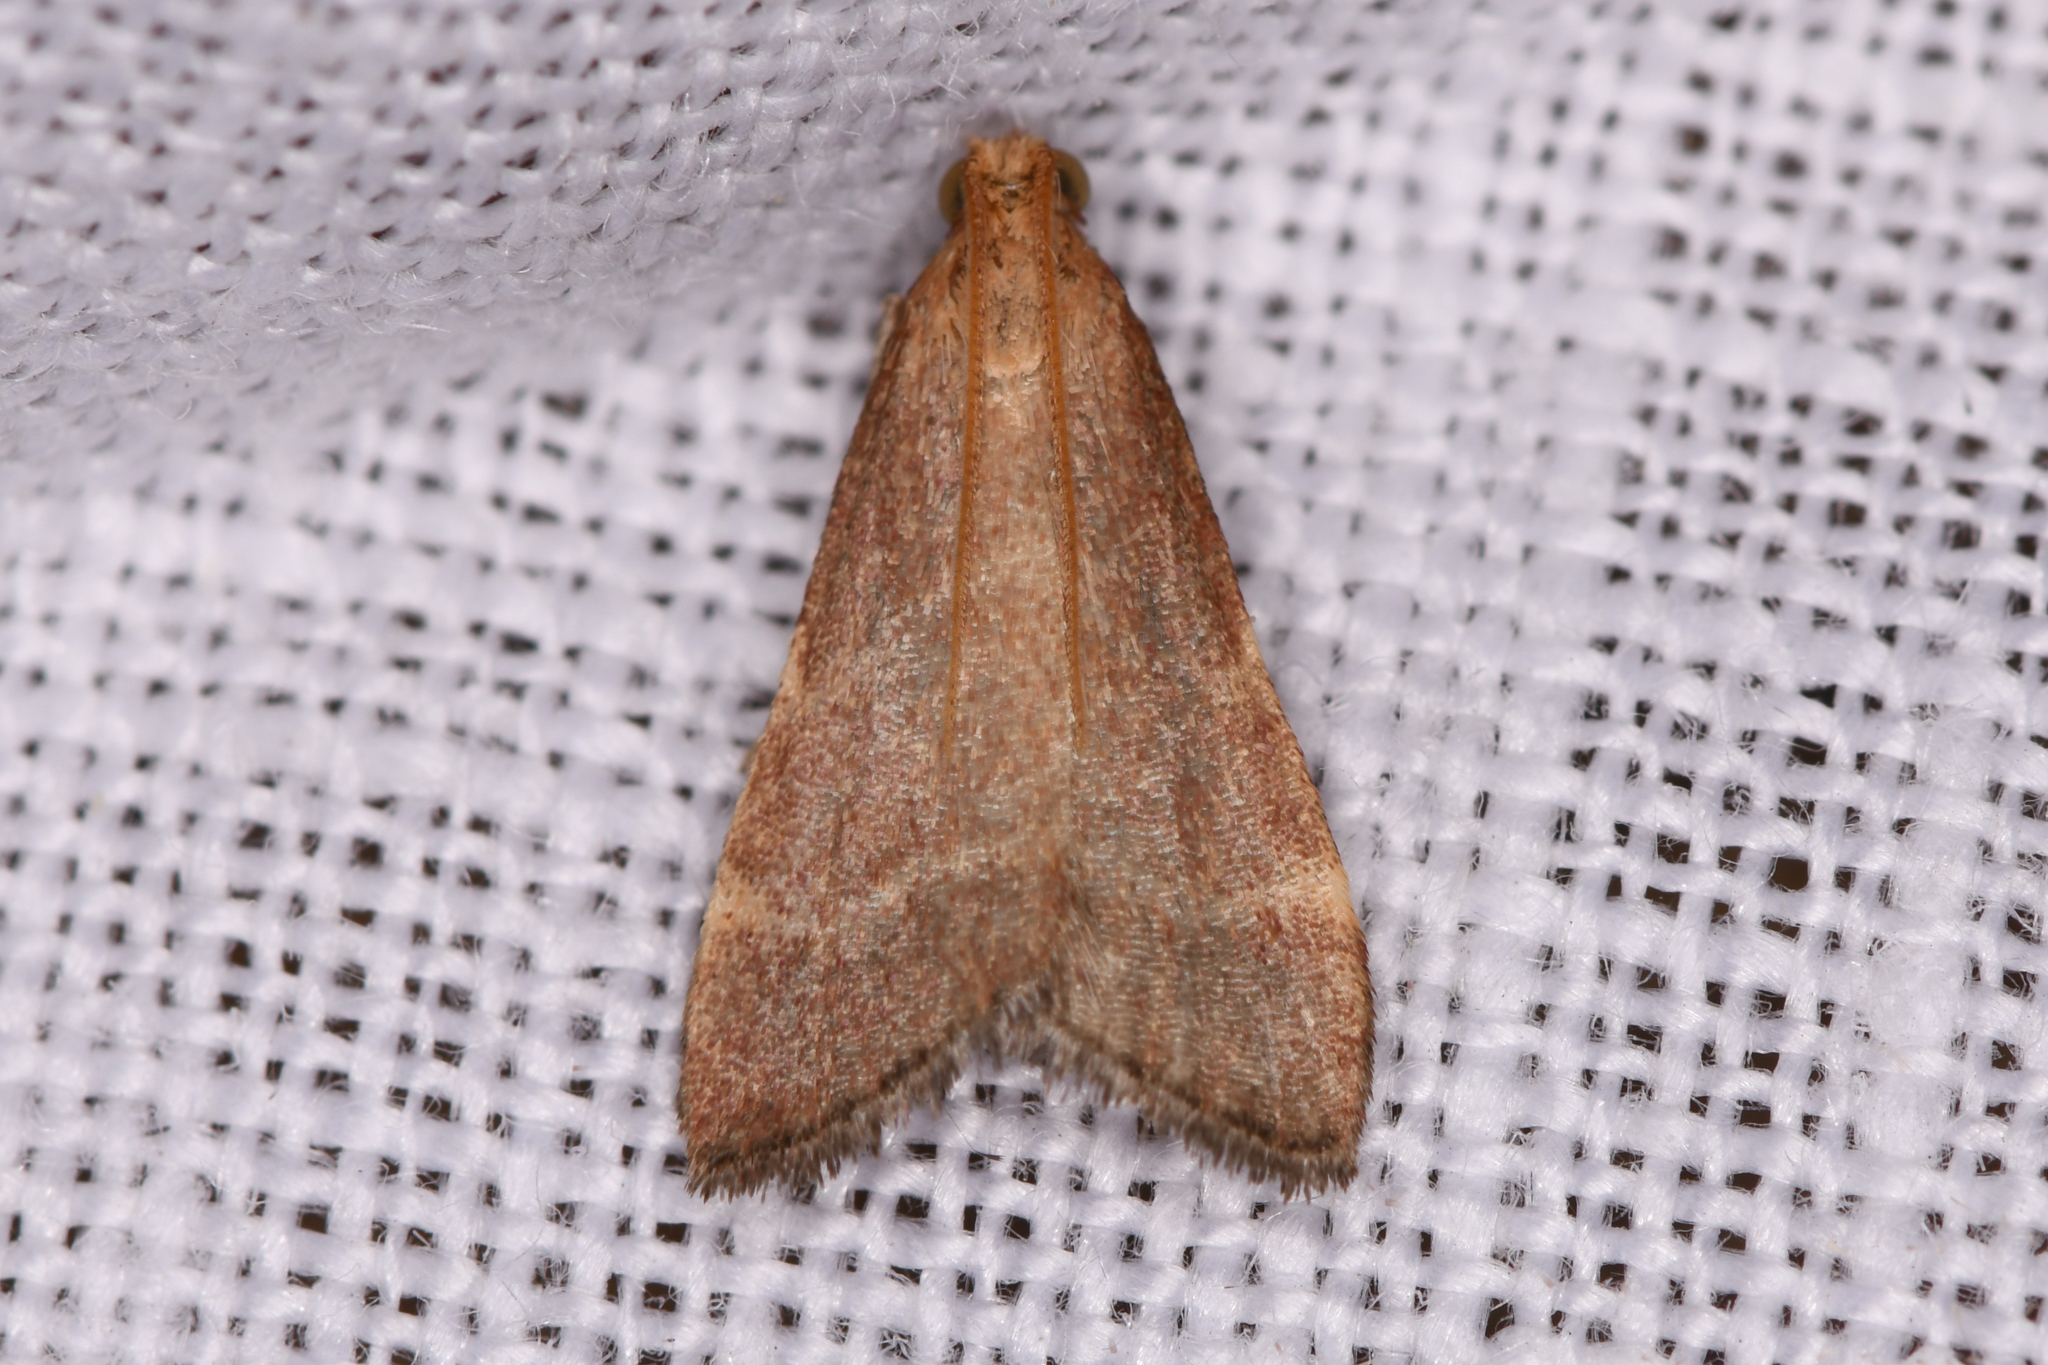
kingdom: Animalia
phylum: Arthropoda
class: Insecta
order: Lepidoptera
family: Pyralidae
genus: Arta
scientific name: Arta epicoenalis
